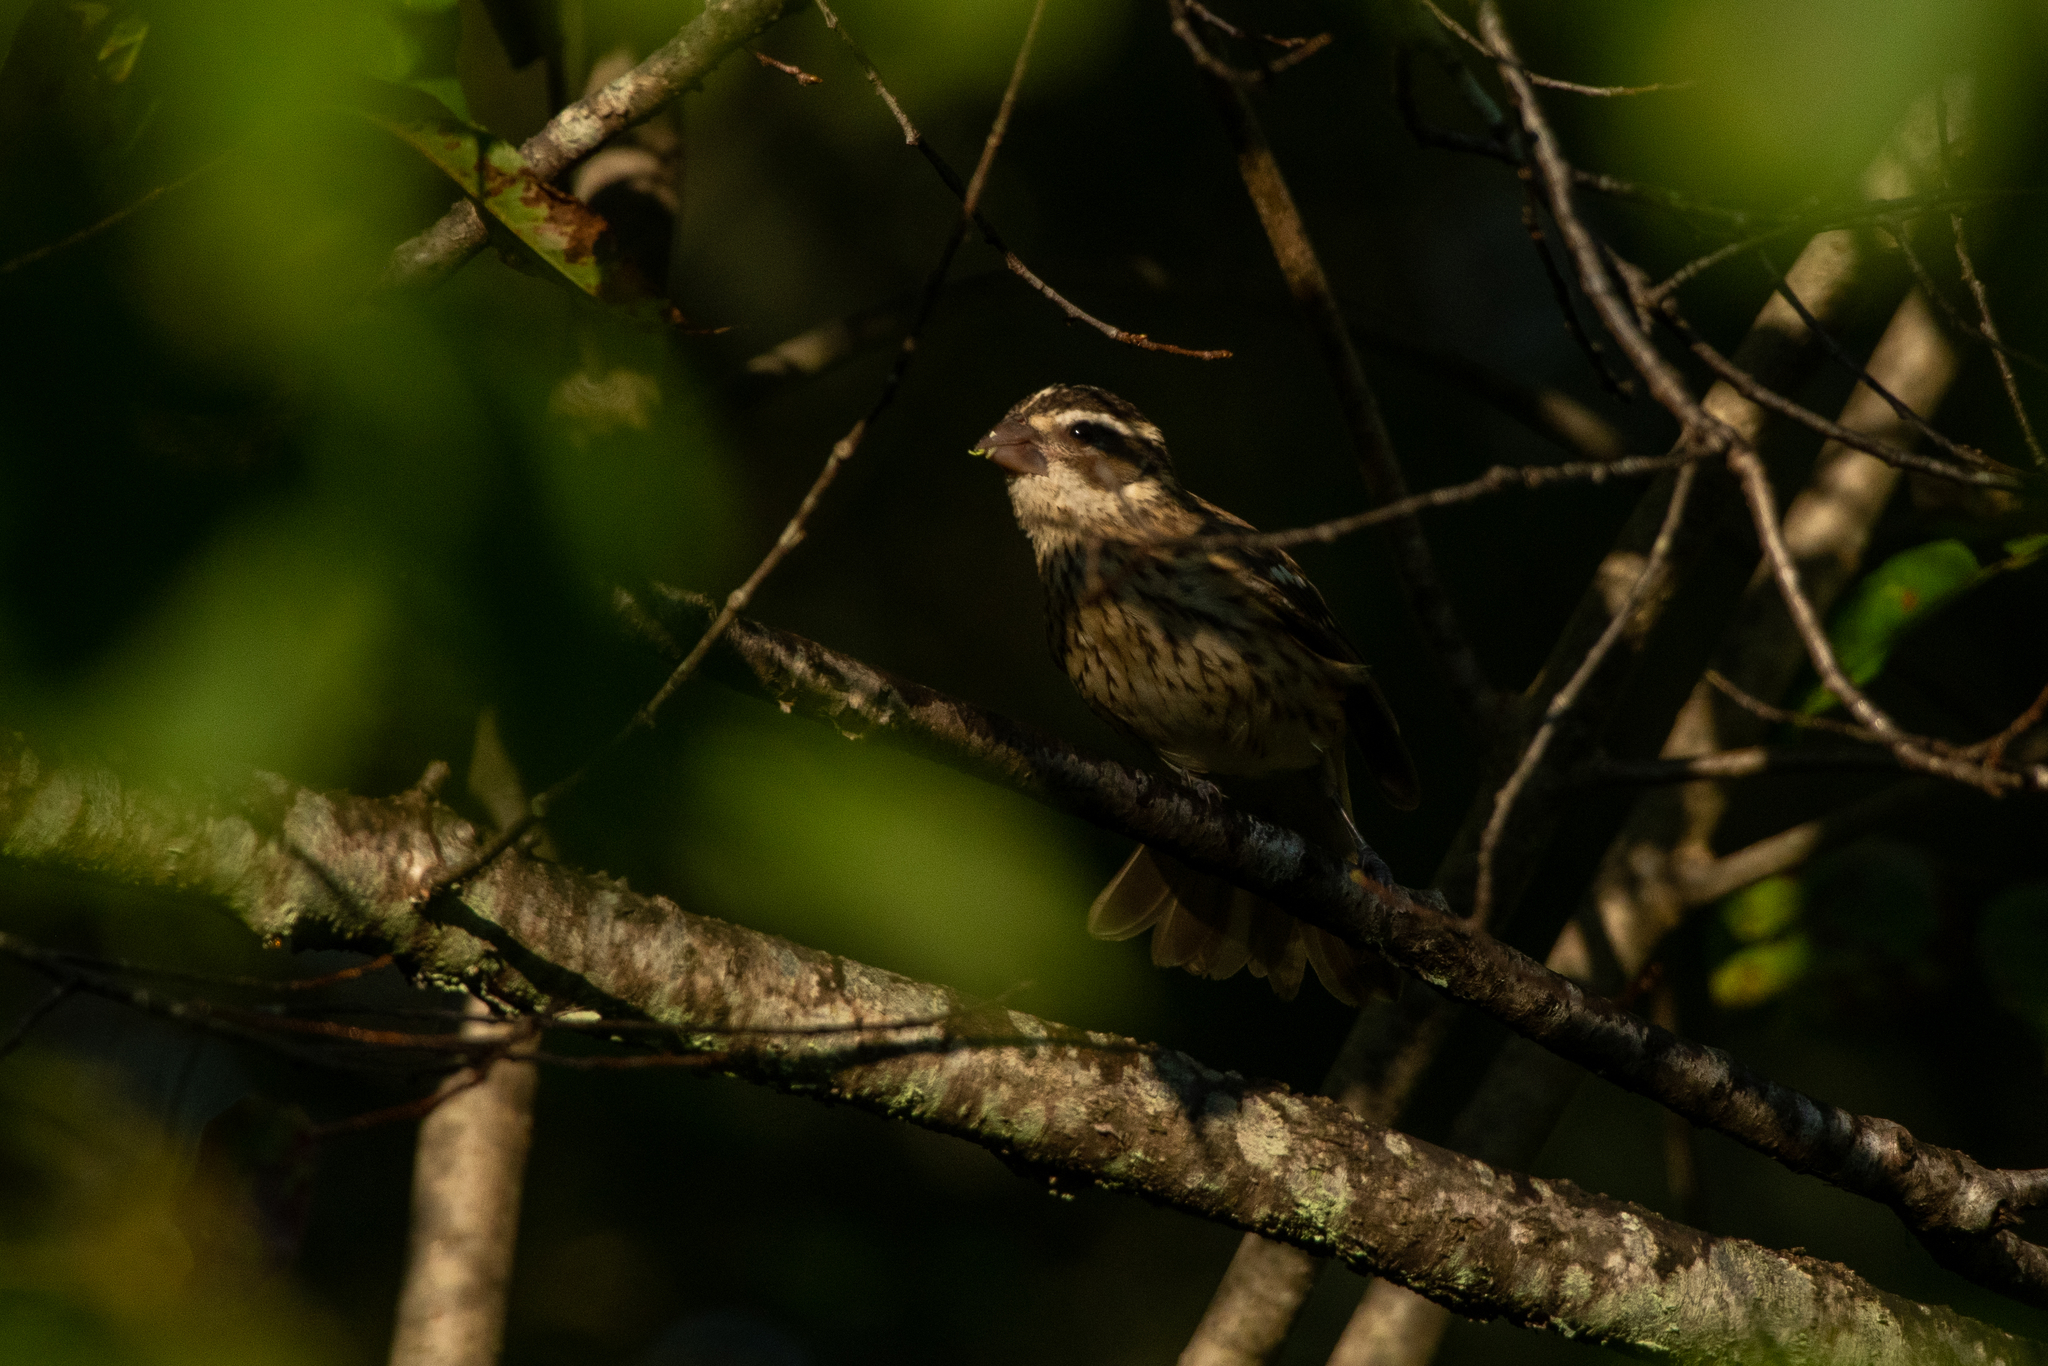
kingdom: Animalia
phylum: Chordata
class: Aves
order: Passeriformes
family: Cardinalidae
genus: Pheucticus
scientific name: Pheucticus ludovicianus
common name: Rose-breasted grosbeak
